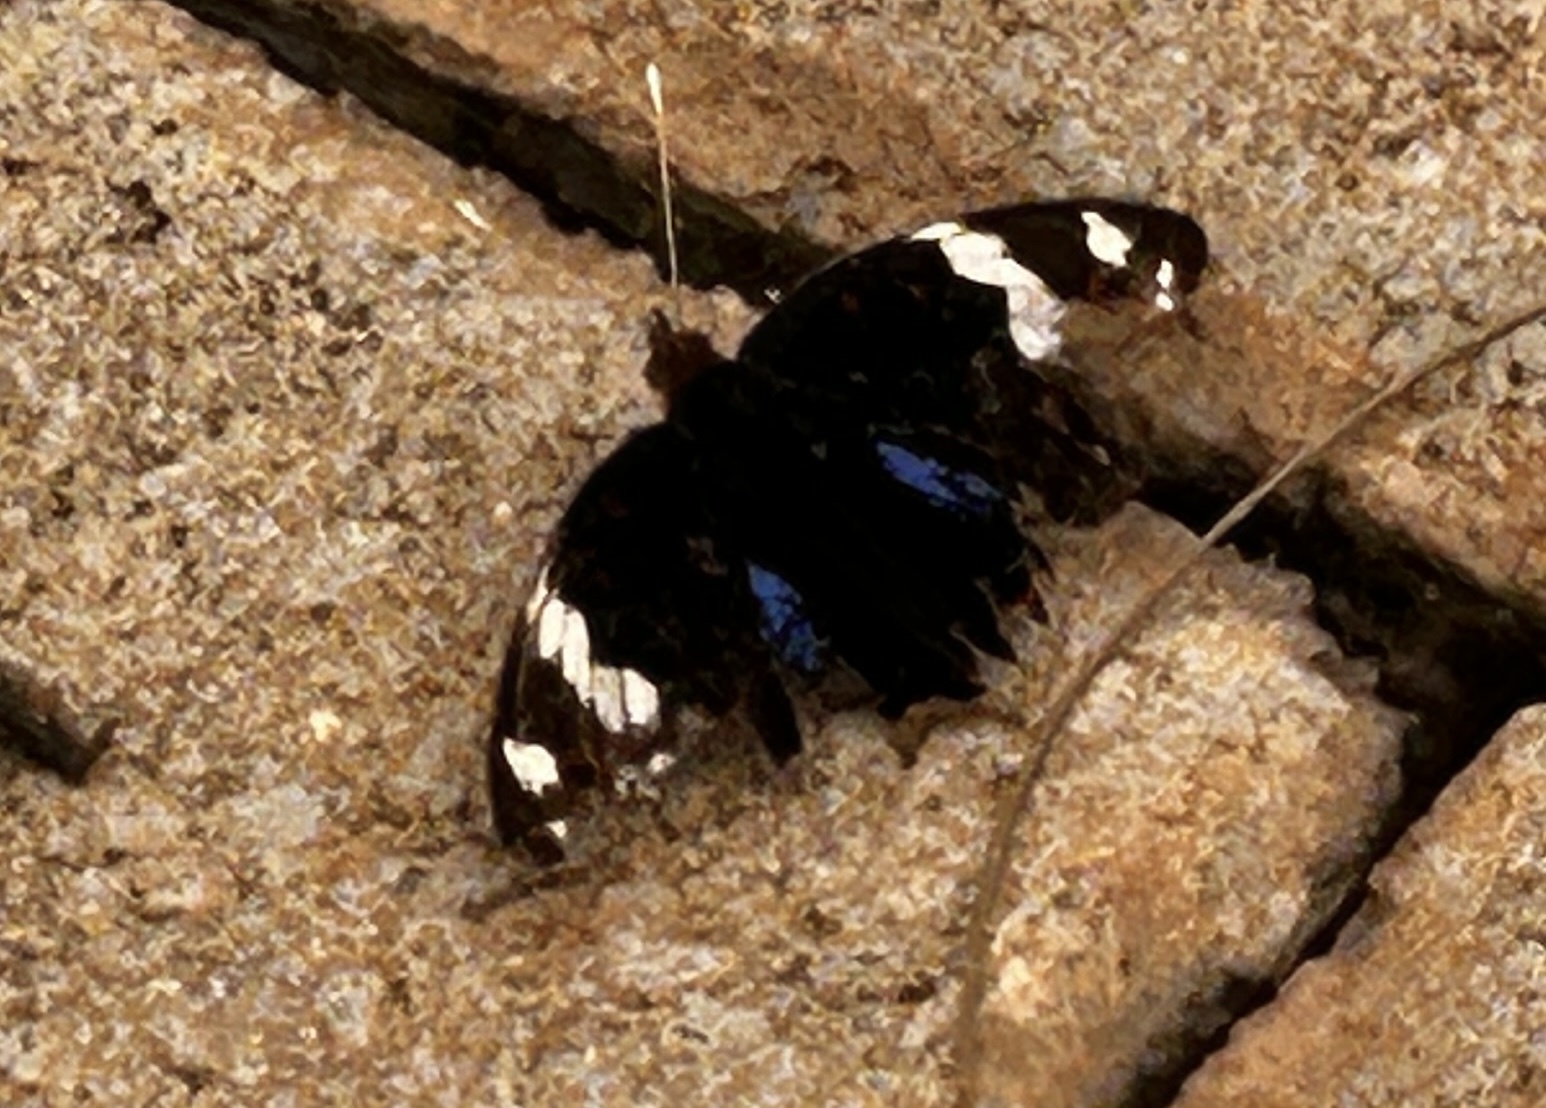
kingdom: Animalia
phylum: Arthropoda
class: Insecta
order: Lepidoptera
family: Nymphalidae
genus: Junonia
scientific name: Junonia oenone
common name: Dark blue pansy
